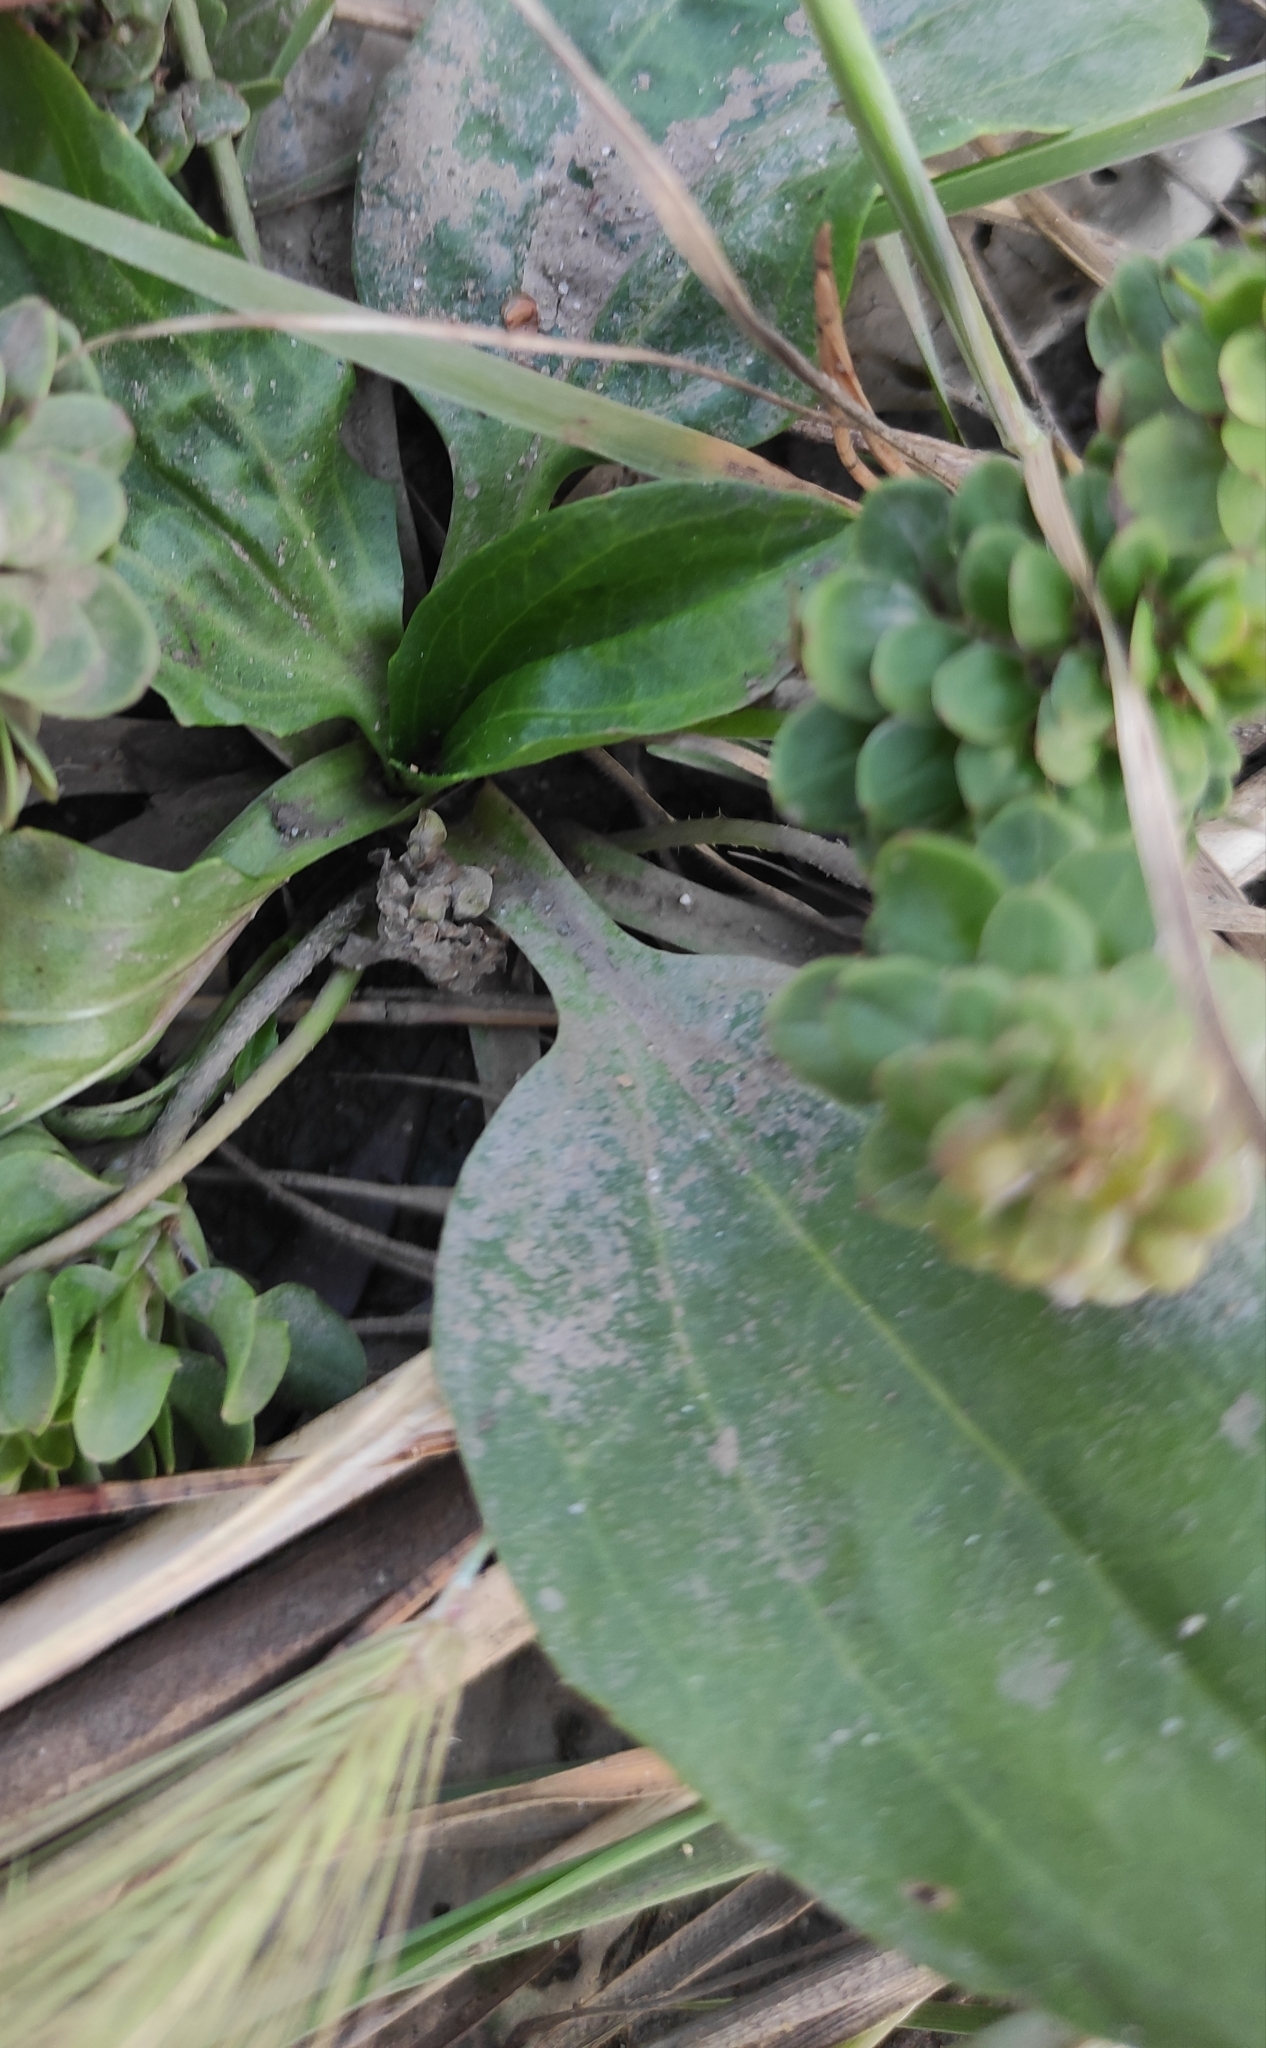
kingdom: Plantae
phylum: Tracheophyta
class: Magnoliopsida
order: Lamiales
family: Plantaginaceae
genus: Plantago
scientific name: Plantago major
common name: Common plantain
